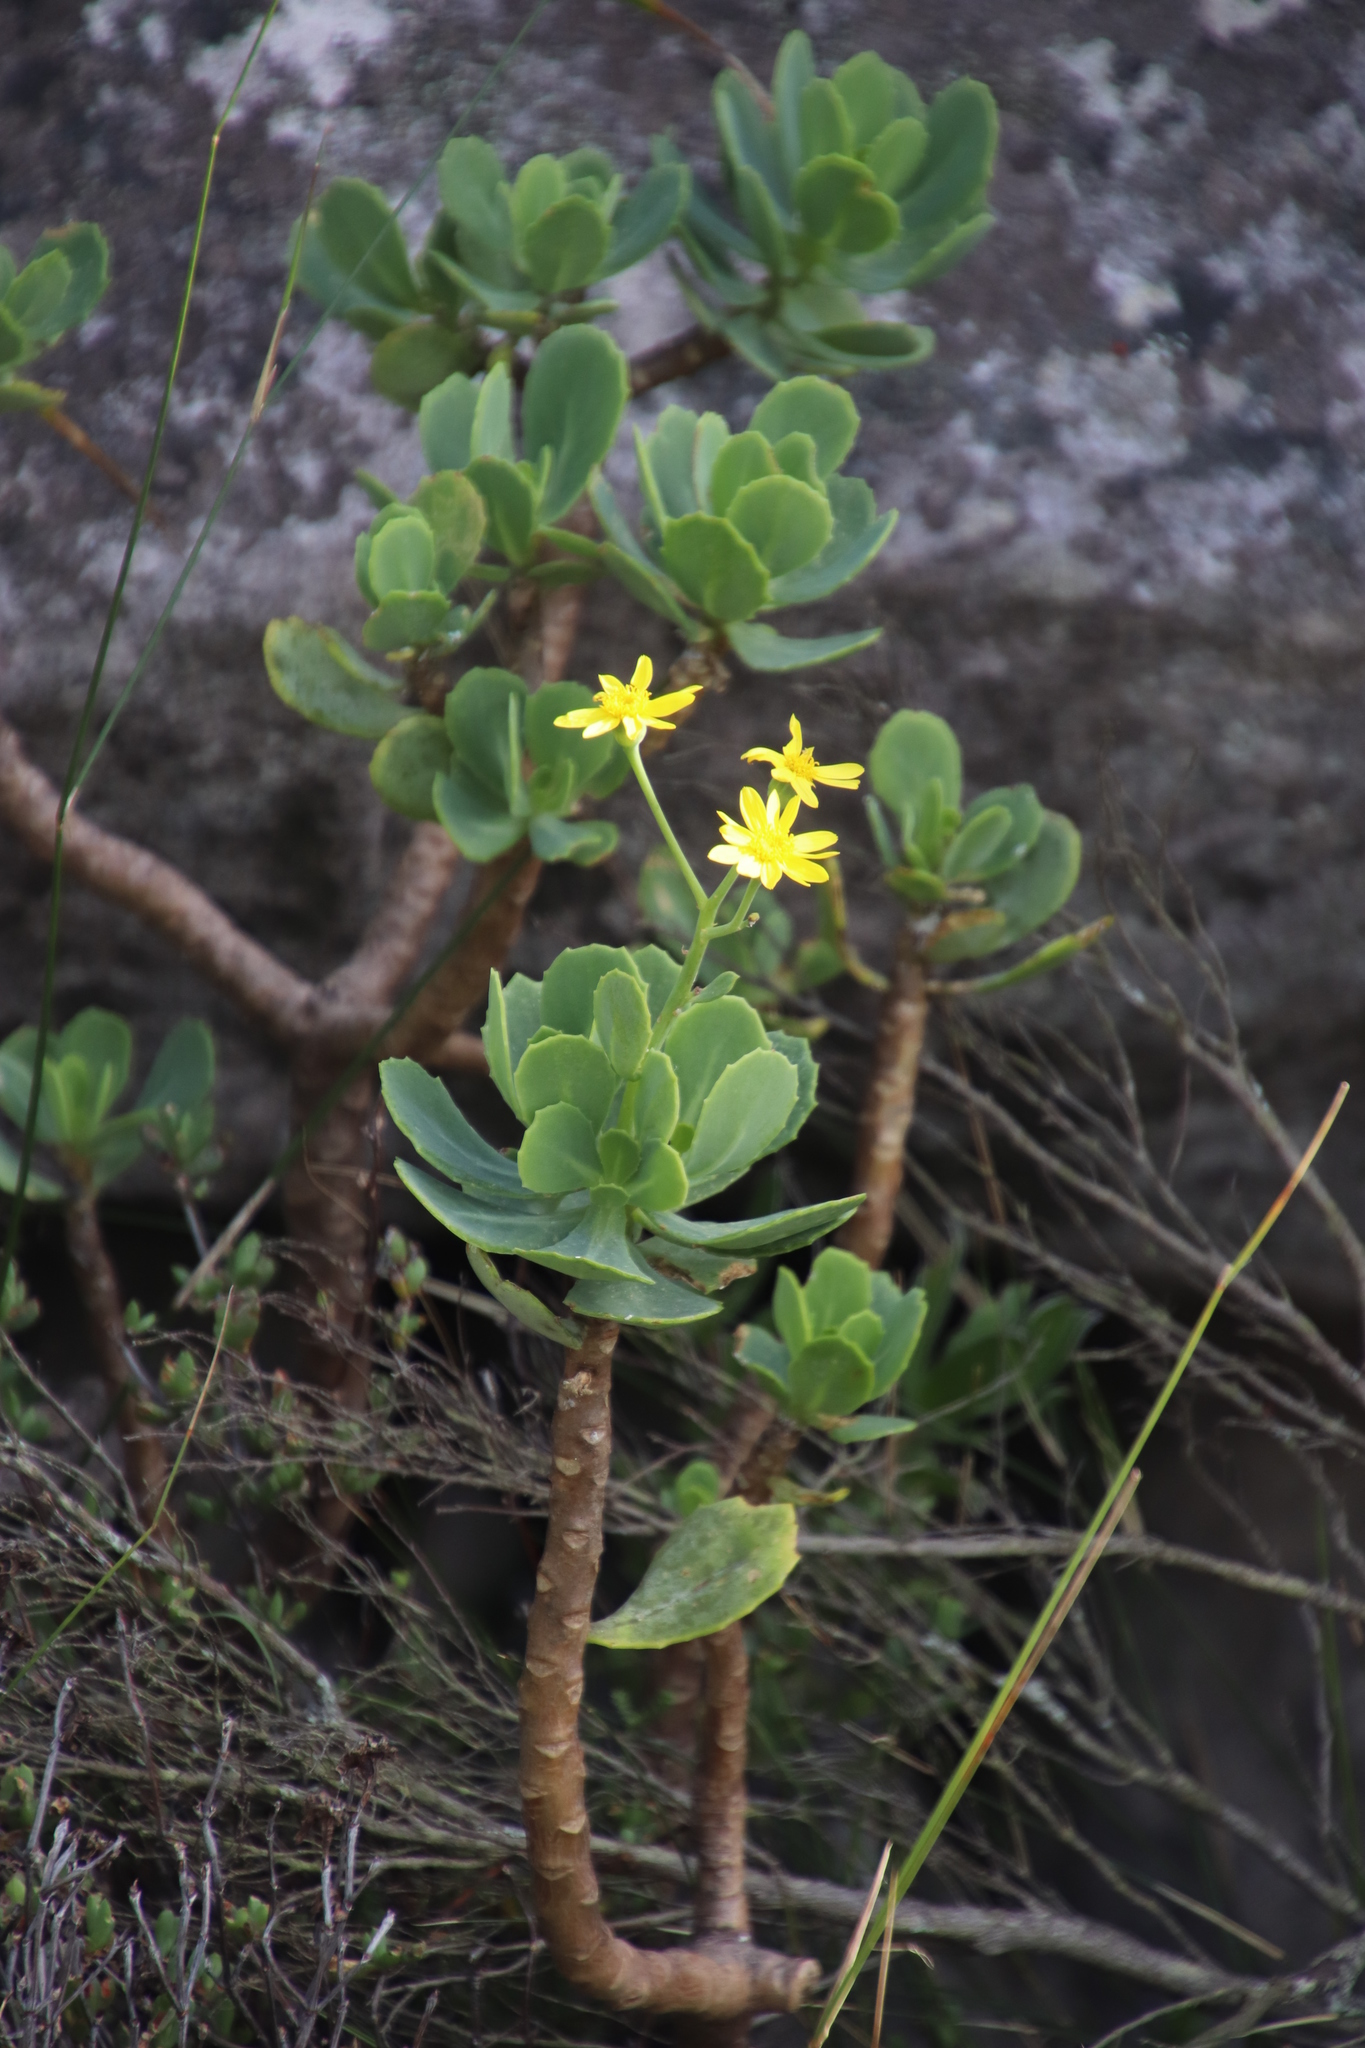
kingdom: Plantae
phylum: Tracheophyta
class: Magnoliopsida
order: Asterales
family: Asteraceae
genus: Othonna
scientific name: Othonna dentata
